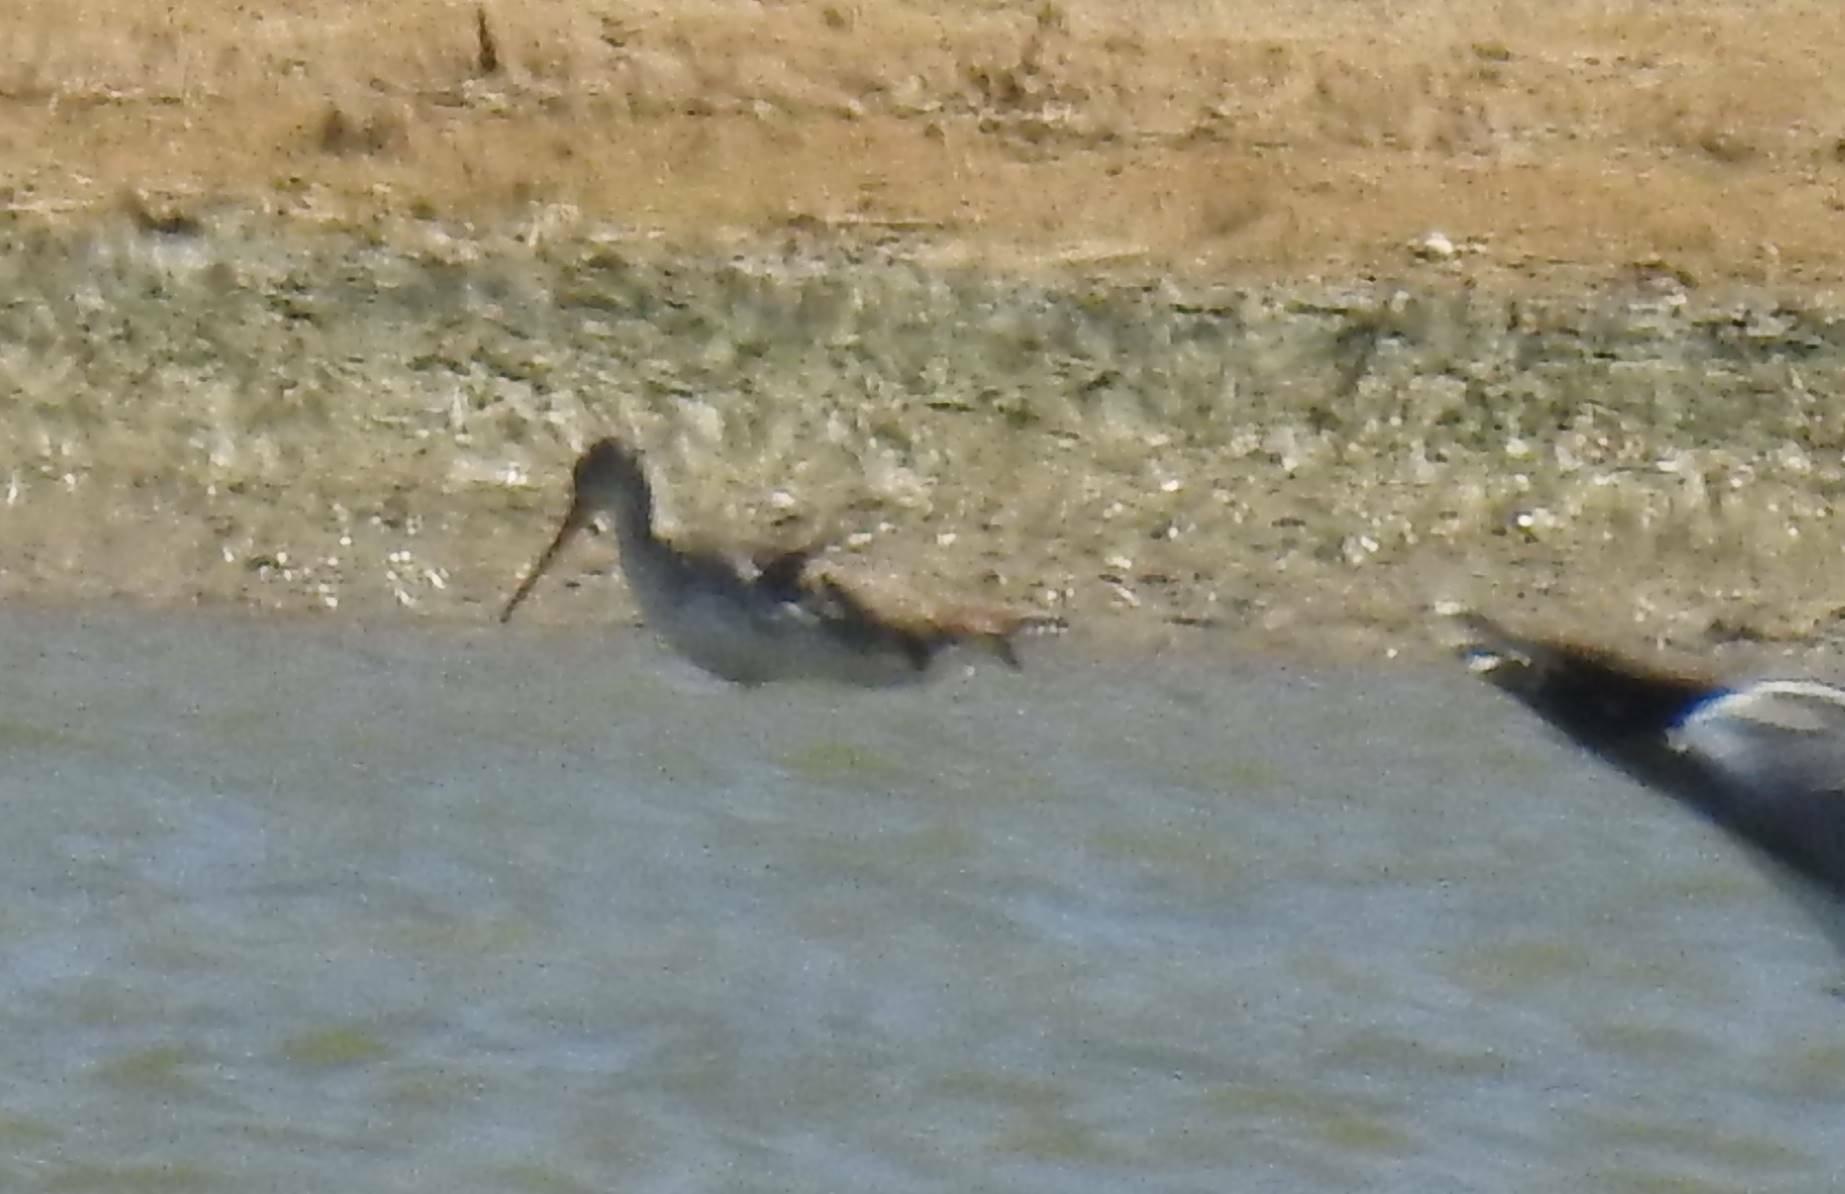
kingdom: Animalia
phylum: Chordata
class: Aves
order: Charadriiformes
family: Scolopacidae
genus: Tringa
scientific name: Tringa erythropus
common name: Spotted redshank
